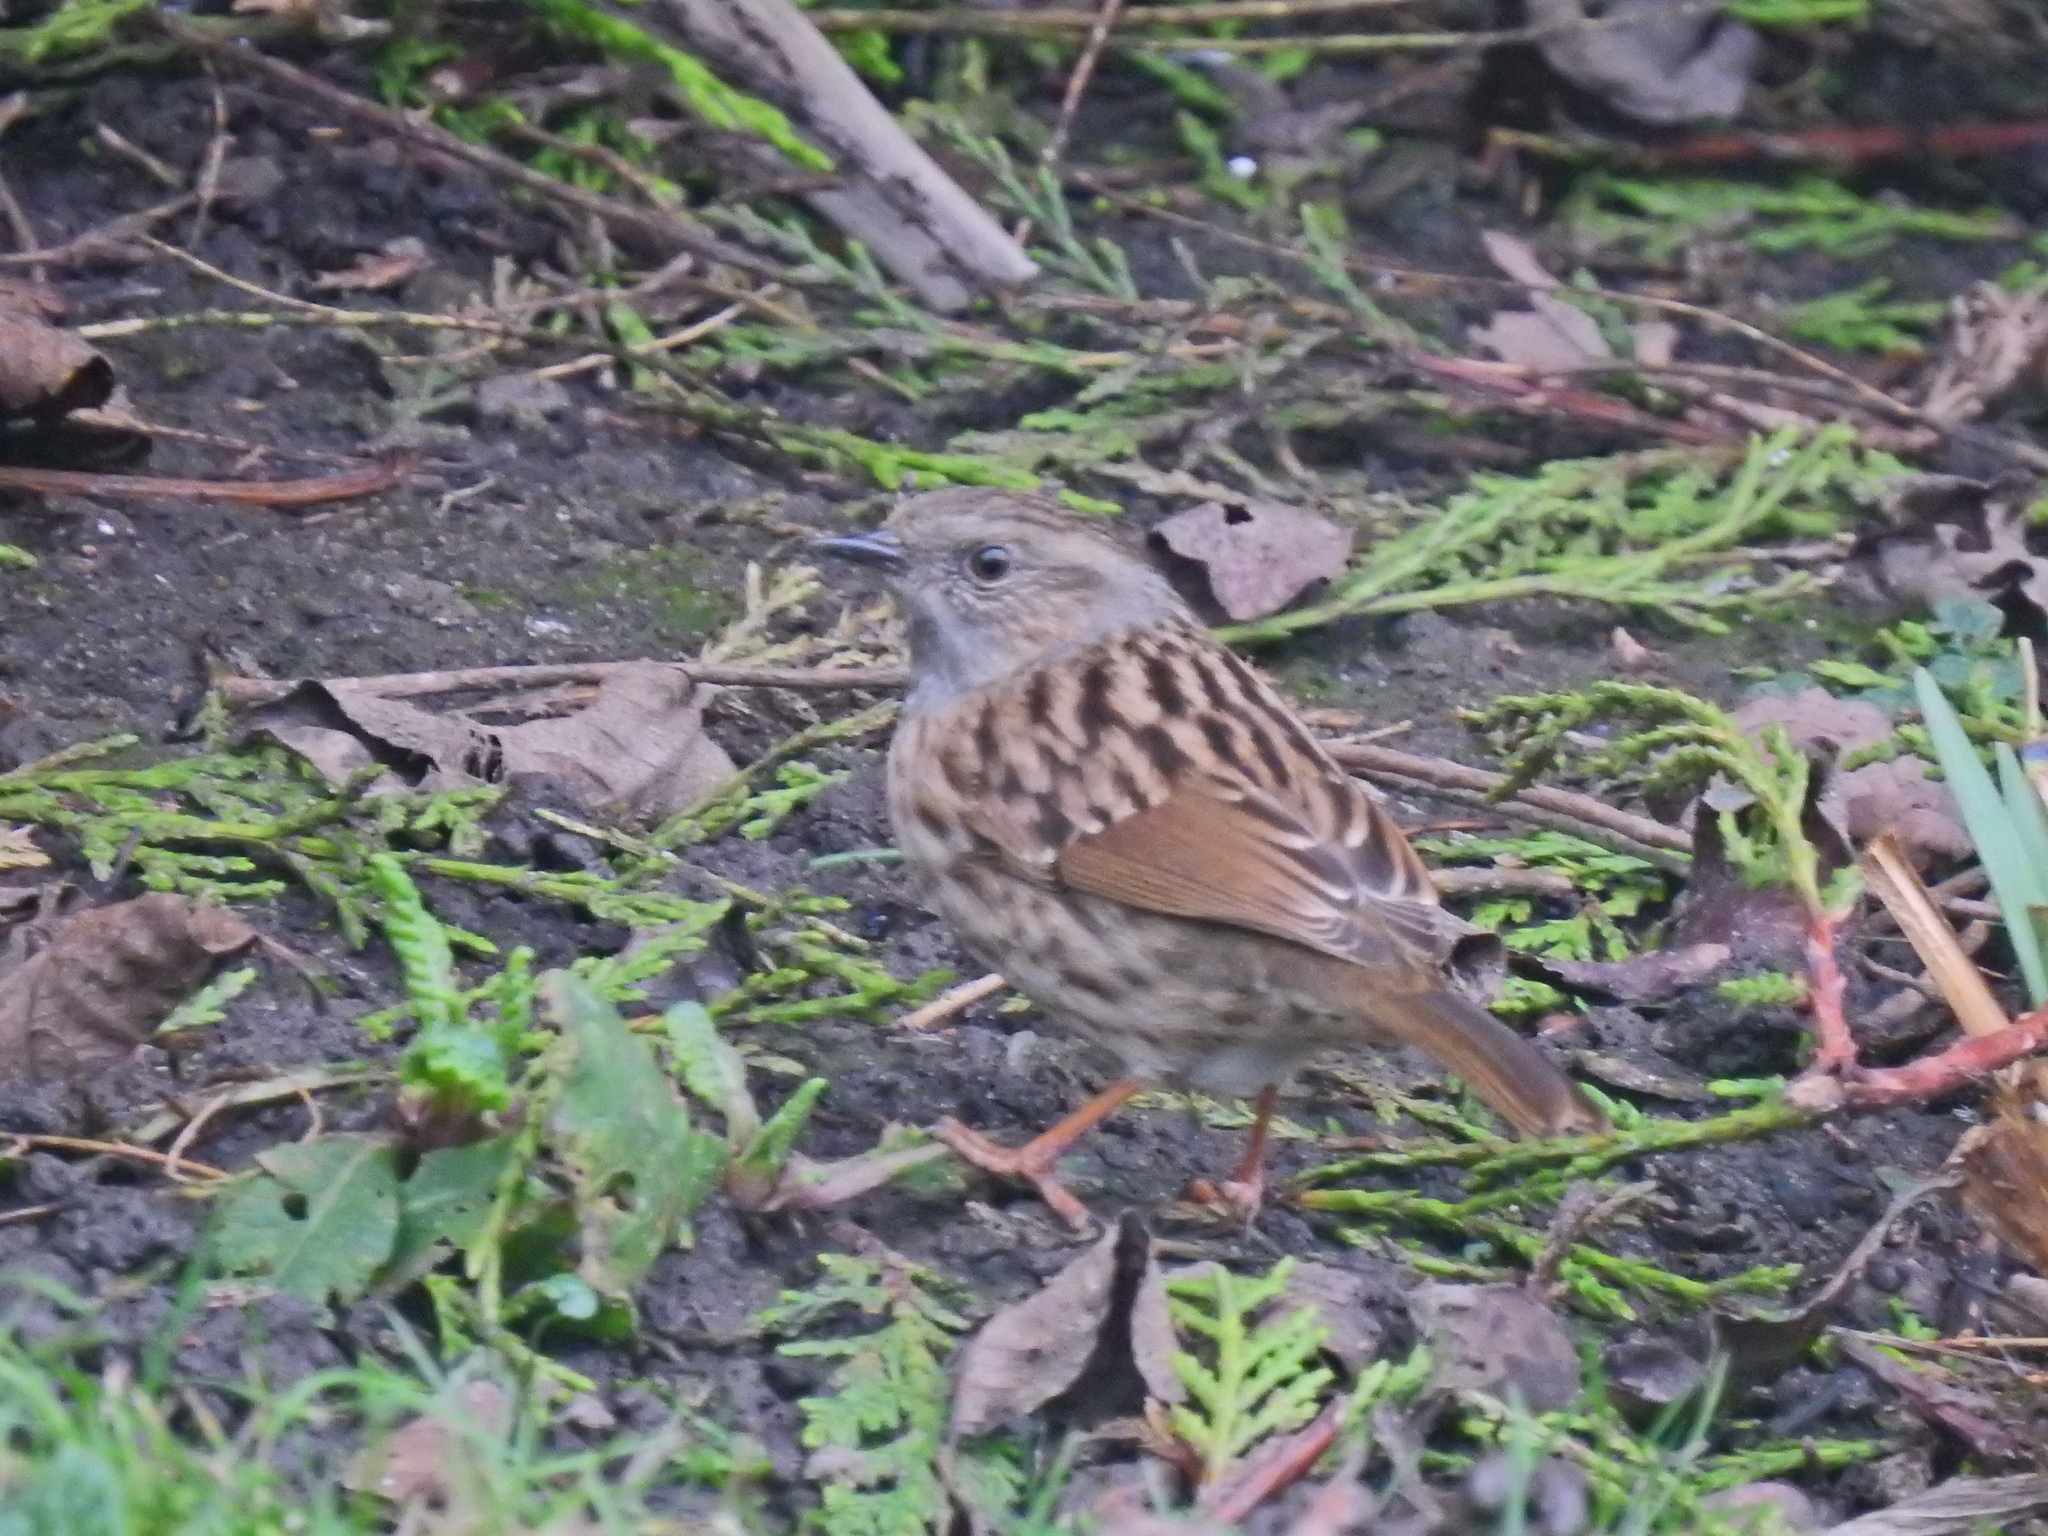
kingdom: Animalia
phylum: Chordata
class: Aves
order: Passeriformes
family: Prunellidae
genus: Prunella
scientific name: Prunella modularis
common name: Dunnock
